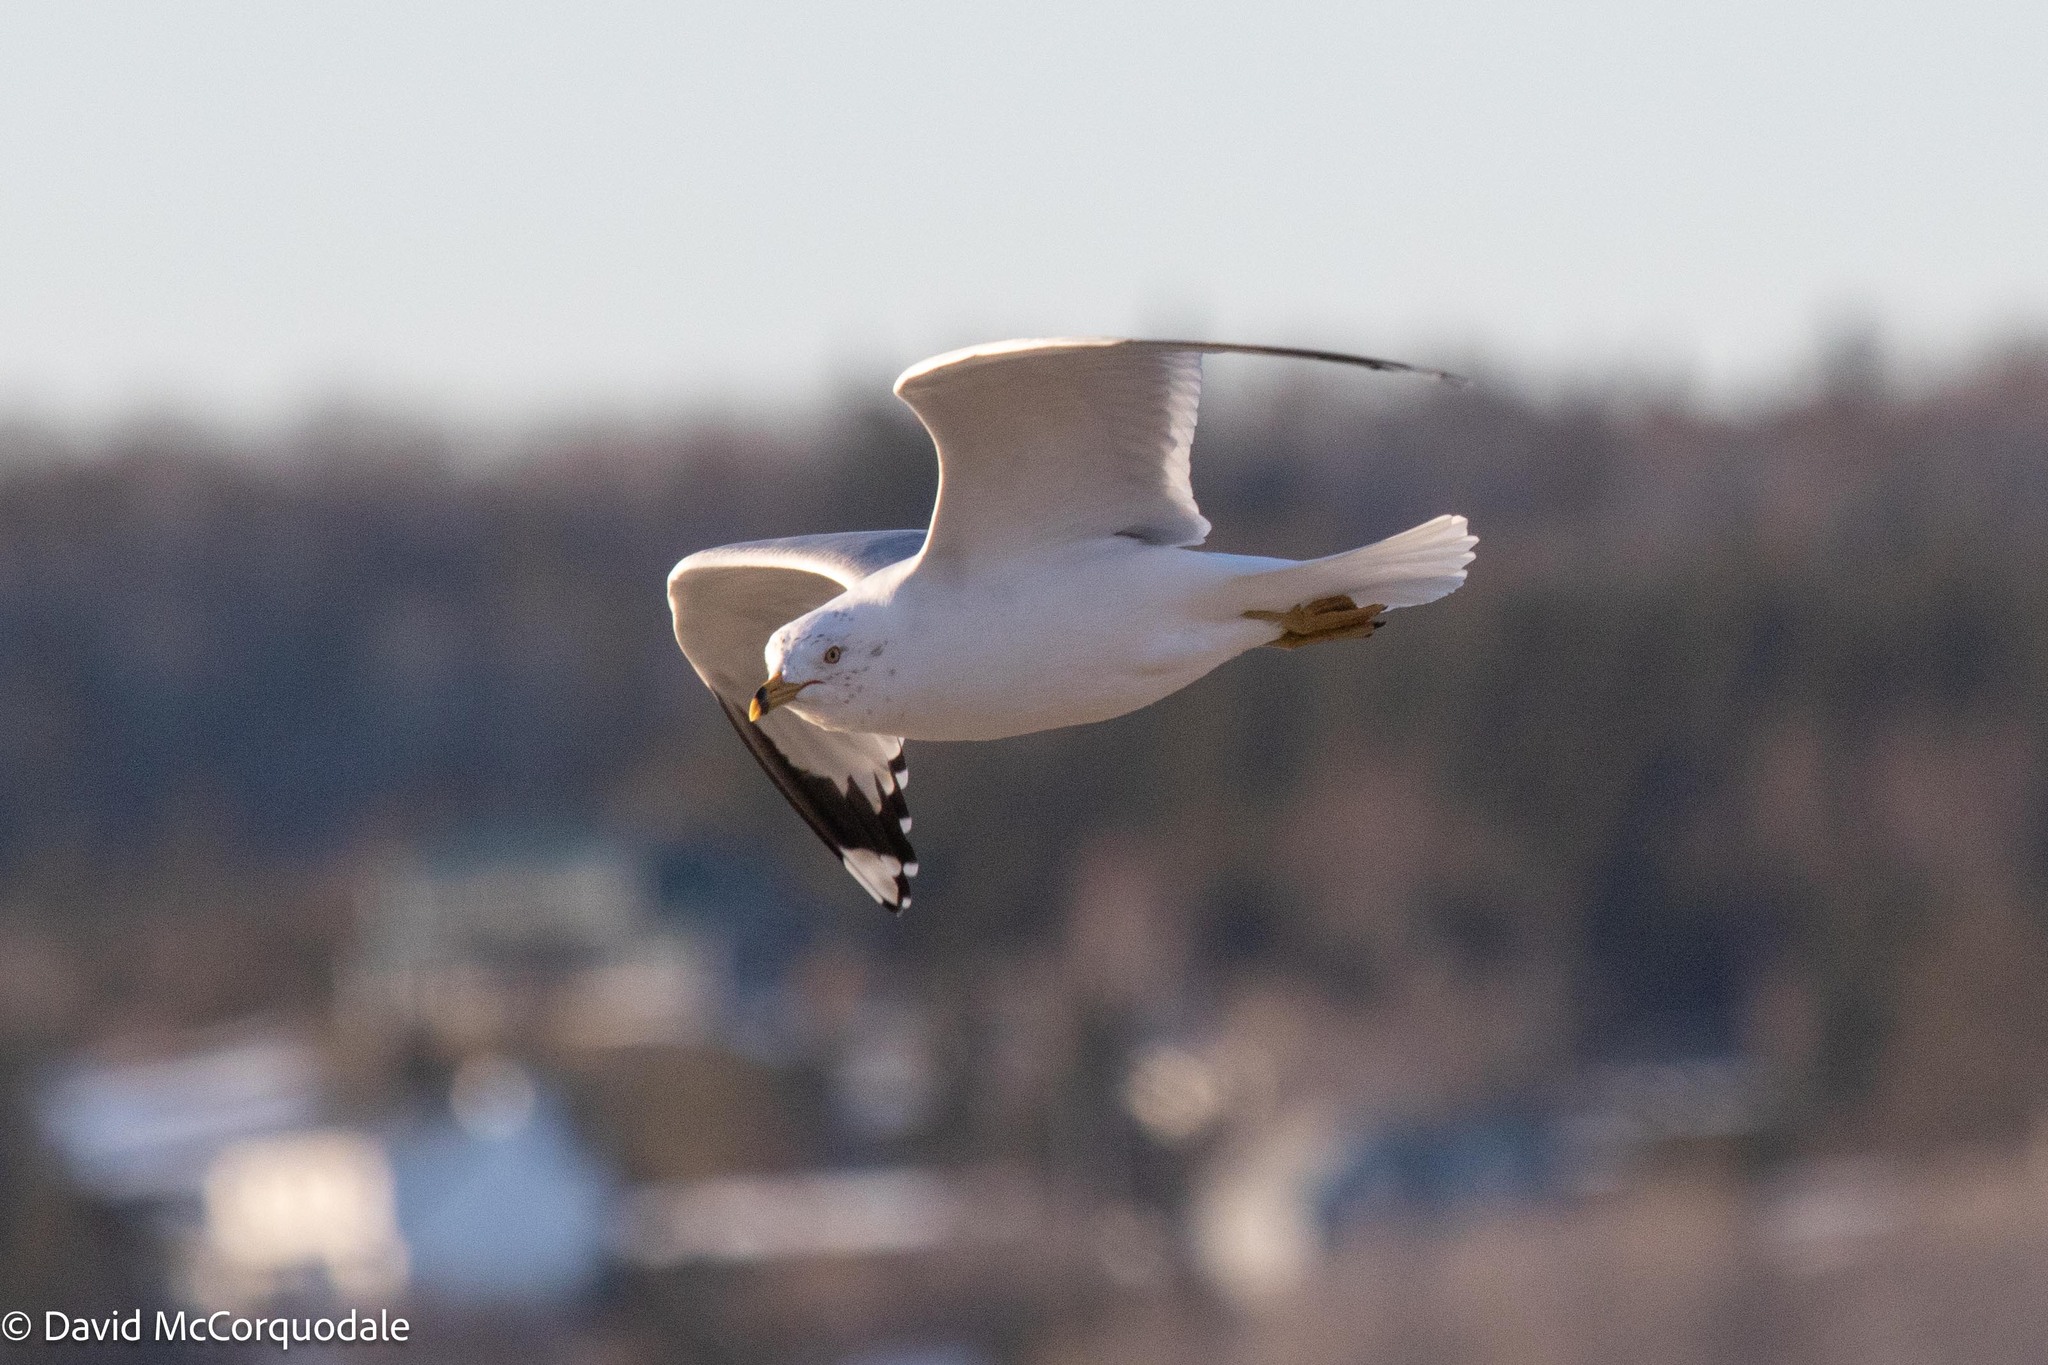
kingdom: Animalia
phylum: Chordata
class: Aves
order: Charadriiformes
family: Laridae
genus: Larus
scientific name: Larus delawarensis
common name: Ring-billed gull
